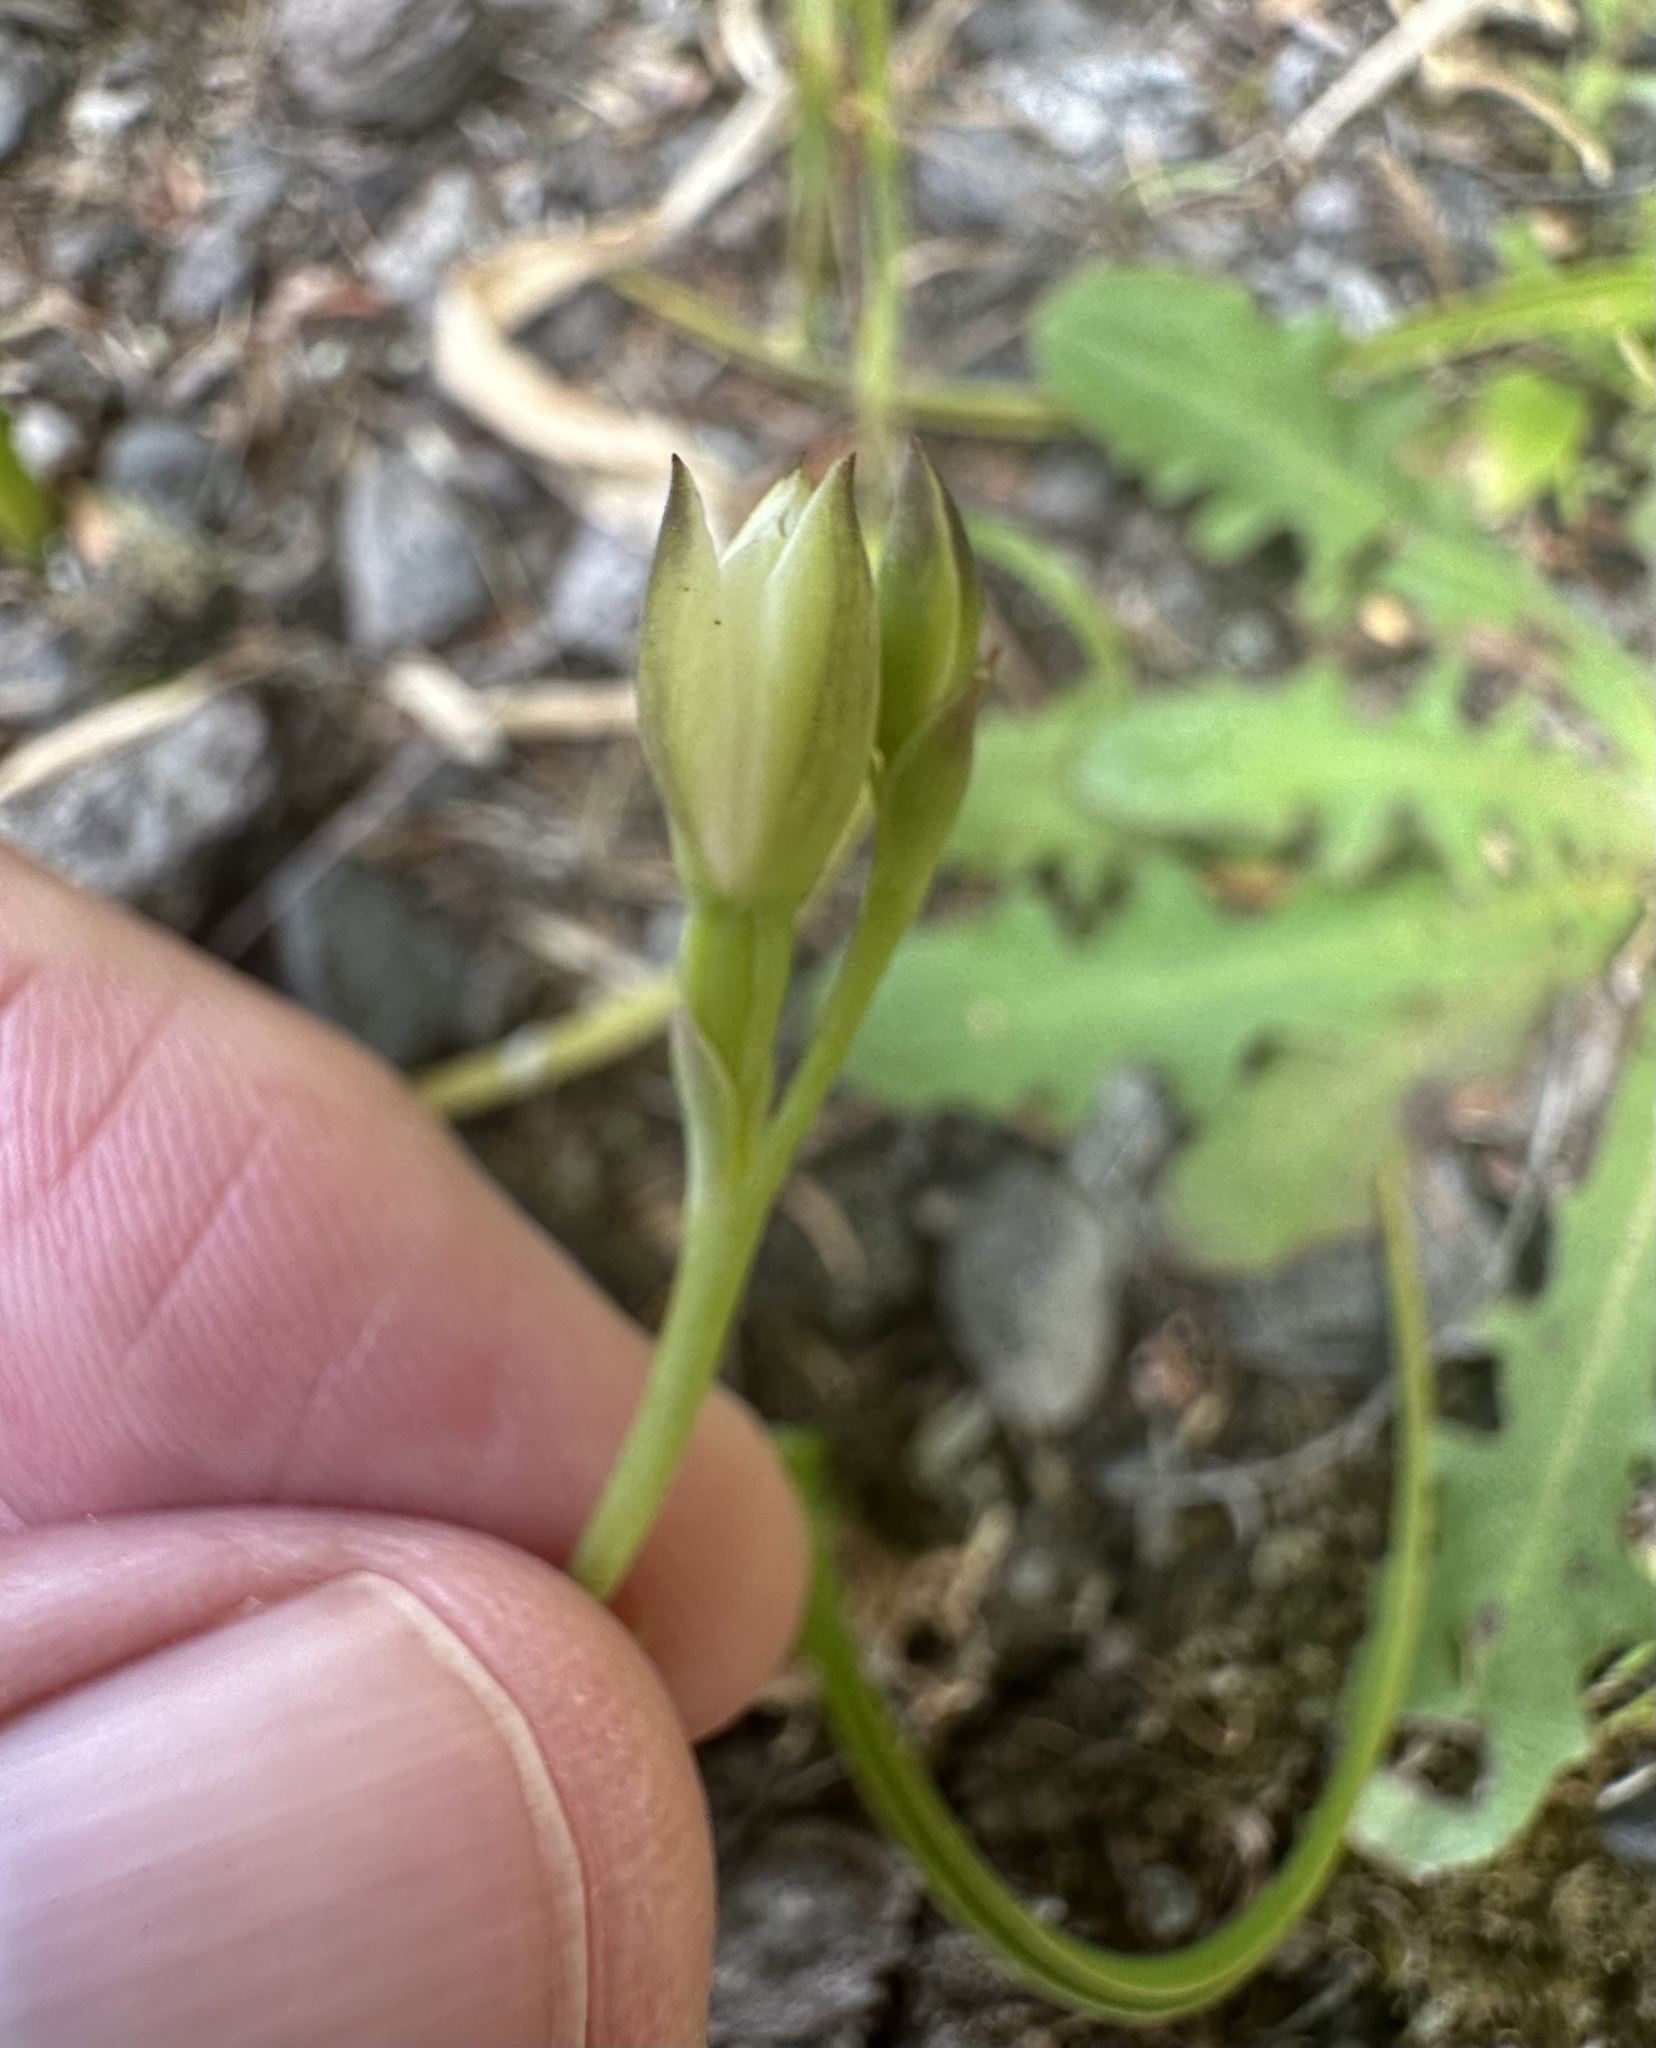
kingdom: Plantae
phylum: Tracheophyta
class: Liliopsida
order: Asparagales
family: Orchidaceae
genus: Thelymitra
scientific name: Thelymitra longifolia
